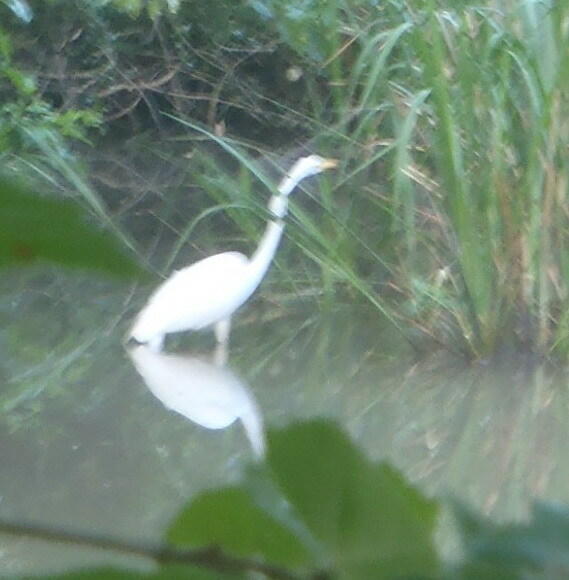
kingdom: Animalia
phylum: Chordata
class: Aves
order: Pelecaniformes
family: Ardeidae
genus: Ardea
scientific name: Ardea alba
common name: Great egret
